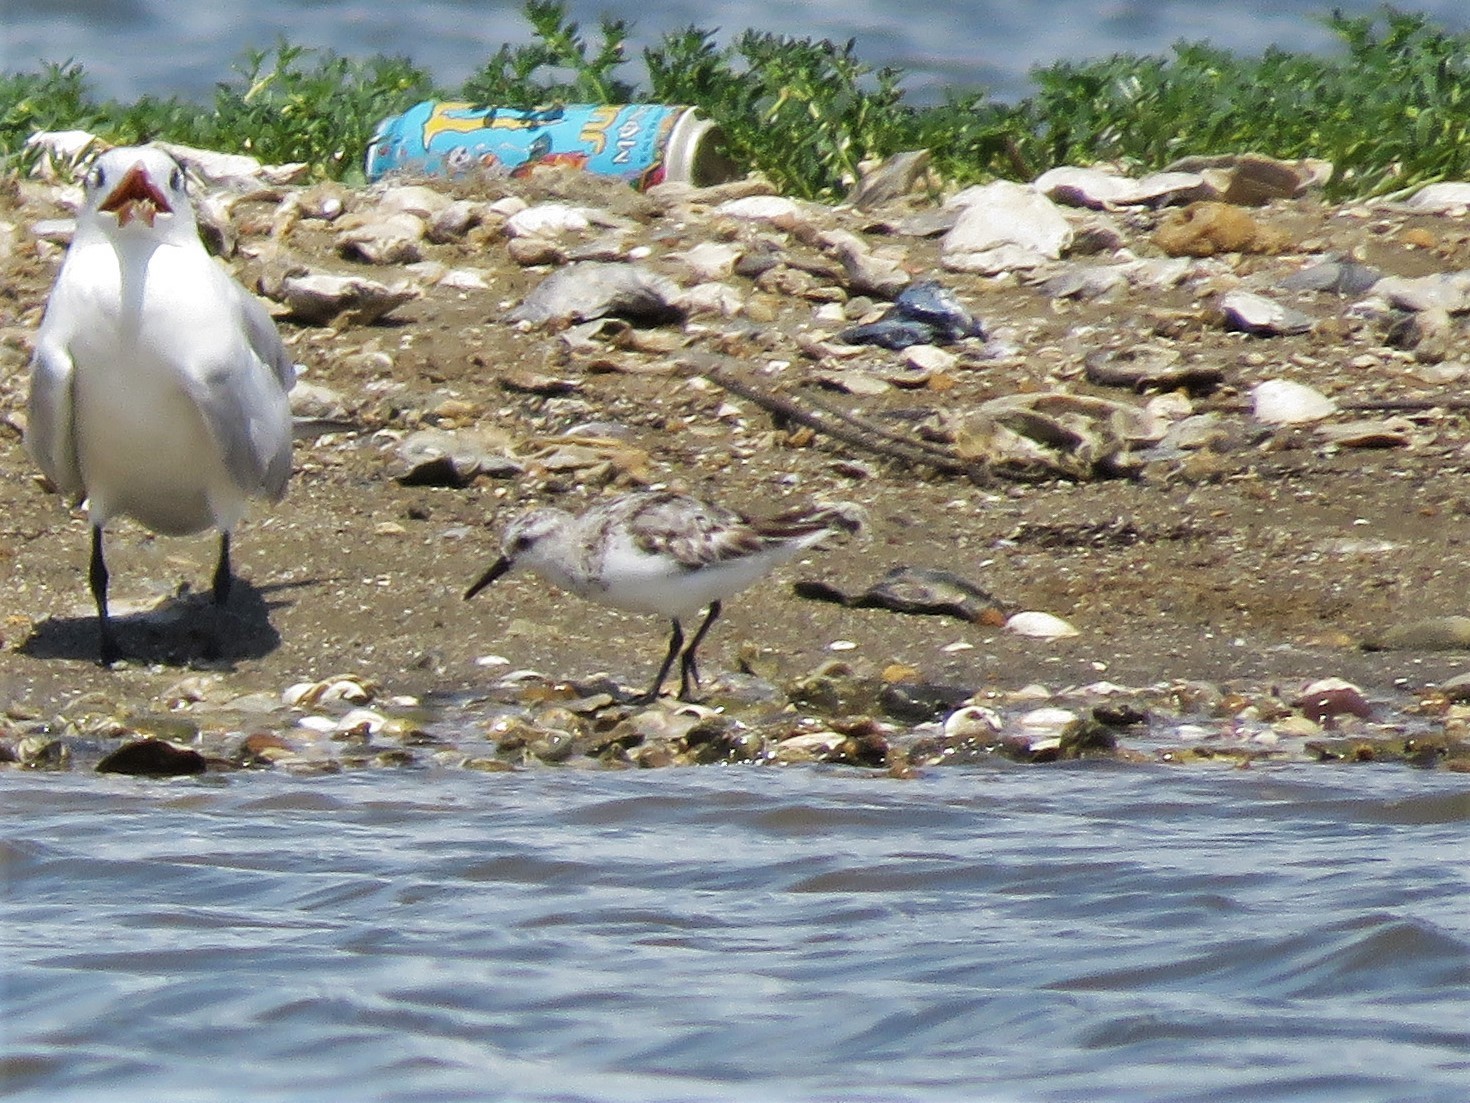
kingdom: Animalia
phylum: Chordata
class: Aves
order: Charadriiformes
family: Scolopacidae
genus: Calidris
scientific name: Calidris alba
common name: Sanderling
